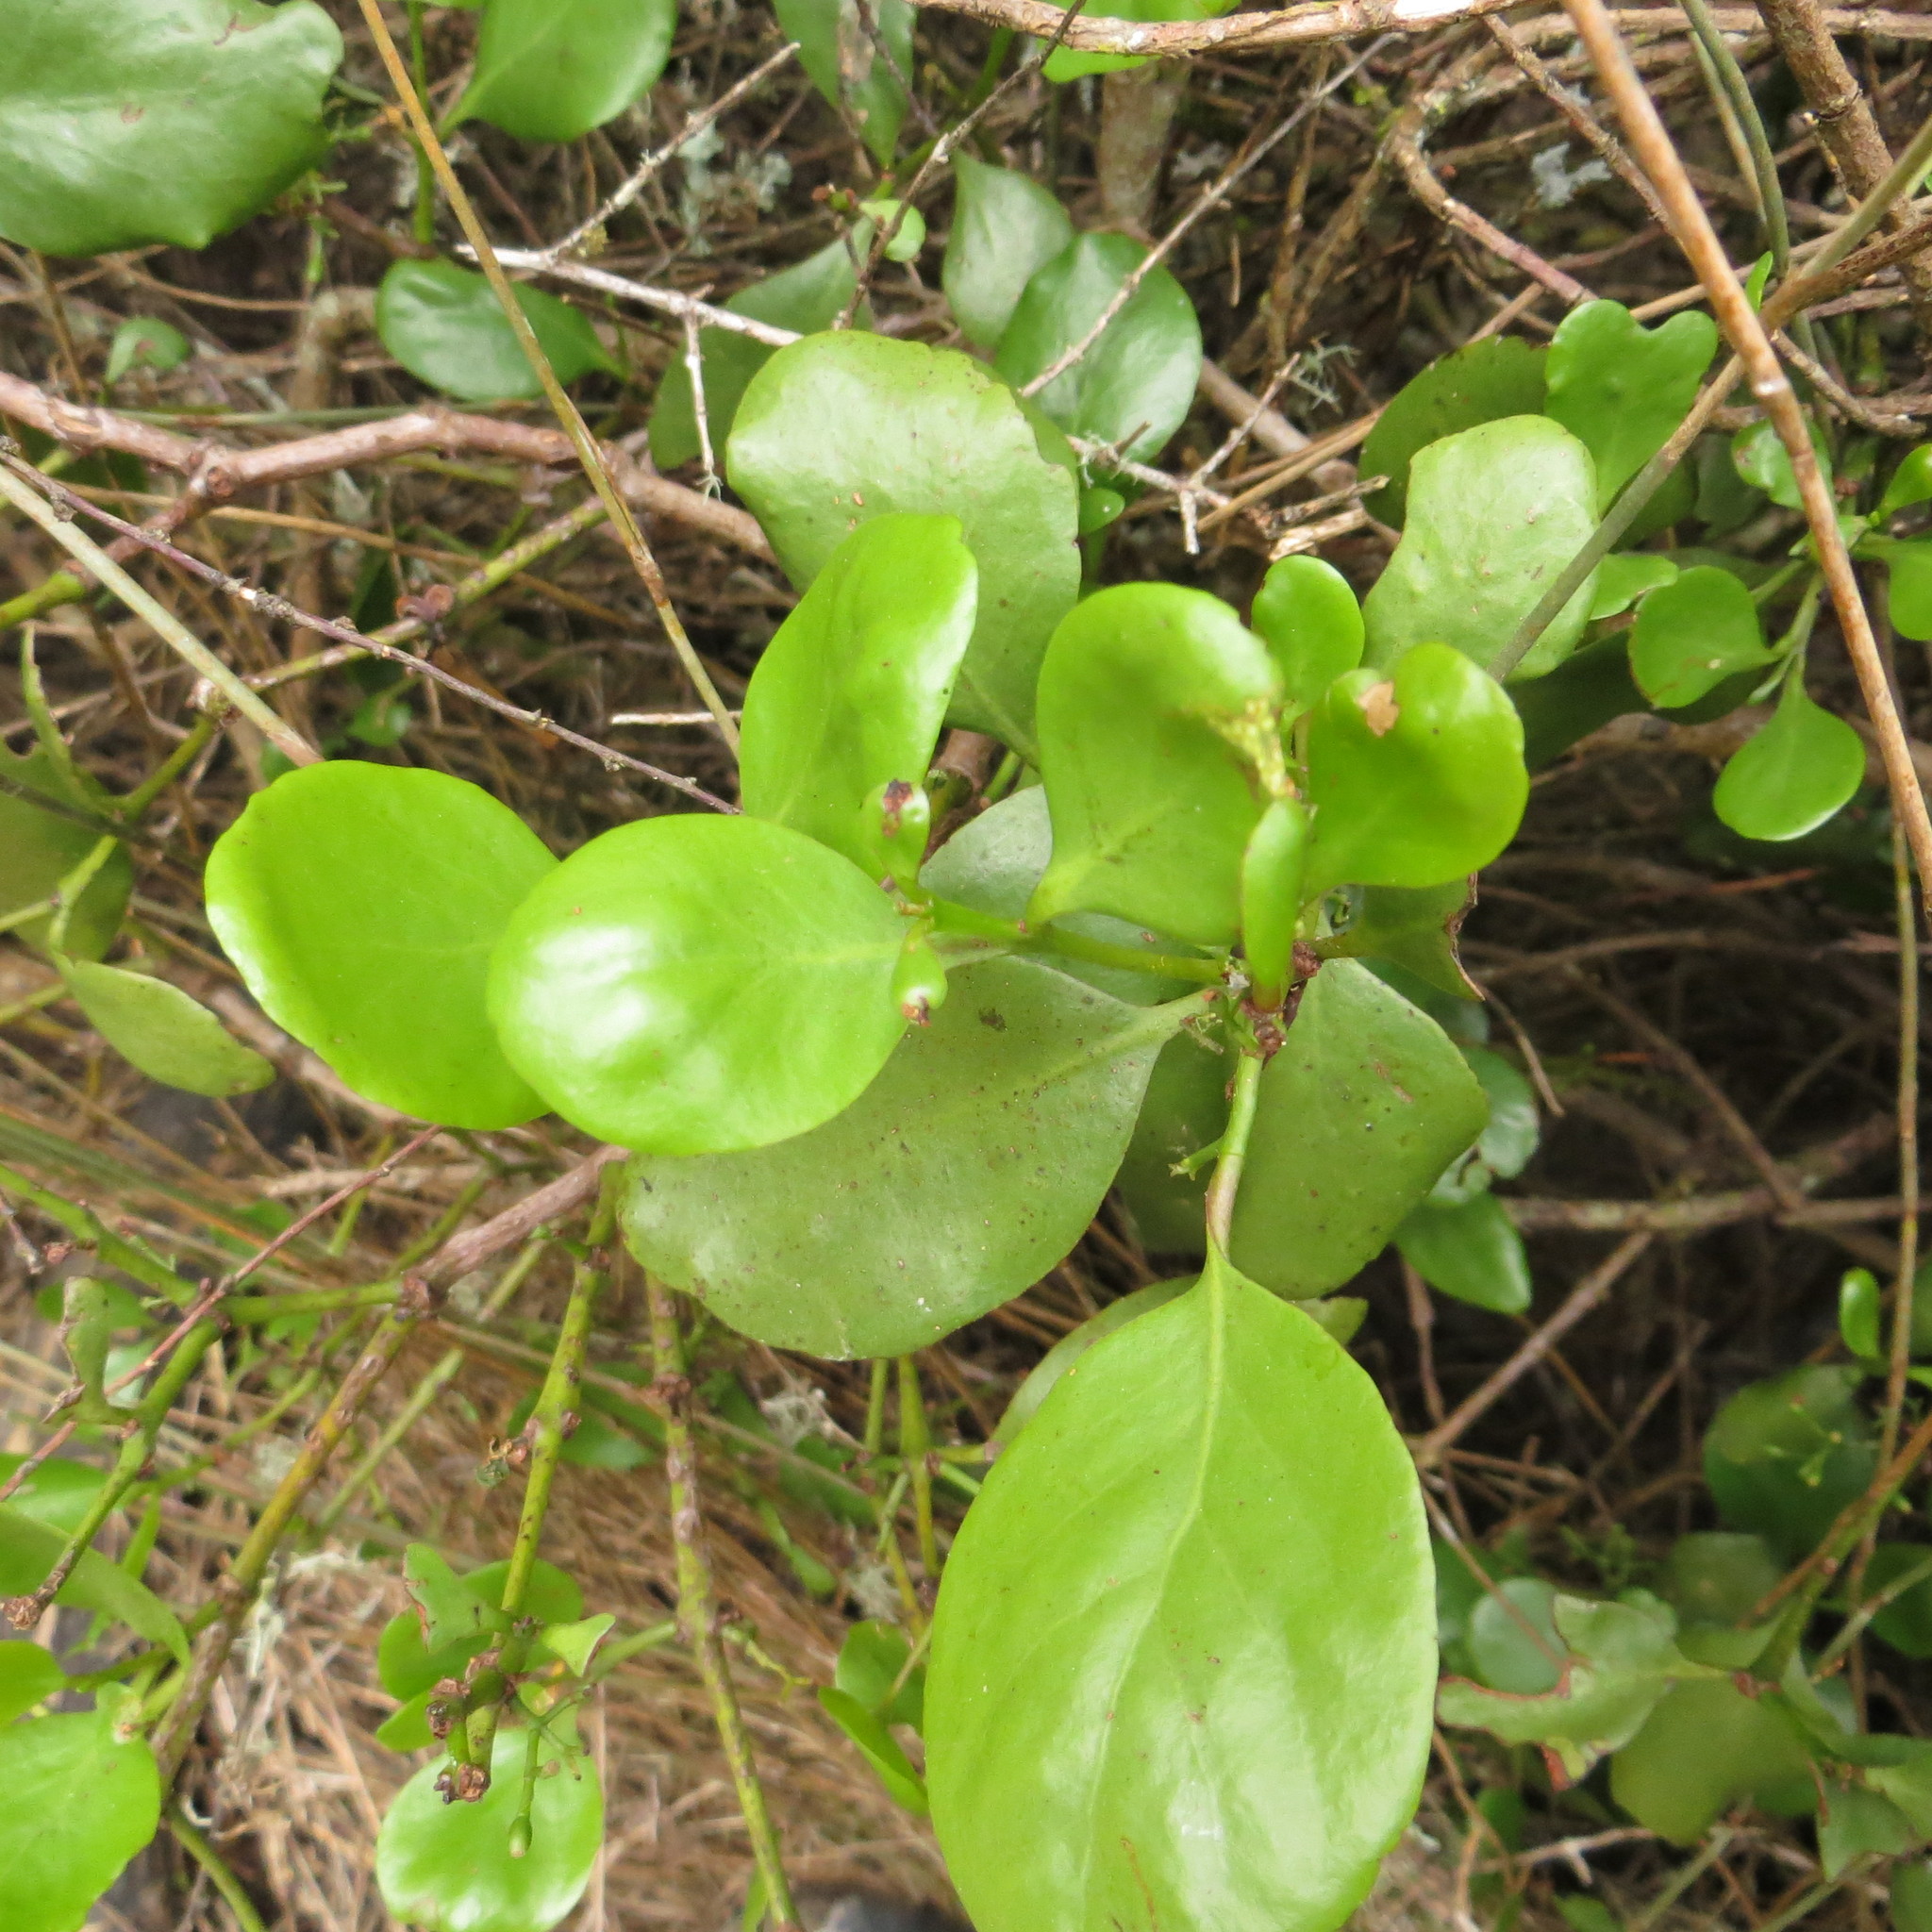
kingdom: Plantae
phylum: Tracheophyta
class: Magnoliopsida
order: Santalales
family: Loranthaceae
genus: Ileostylus
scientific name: Ileostylus micranthus
